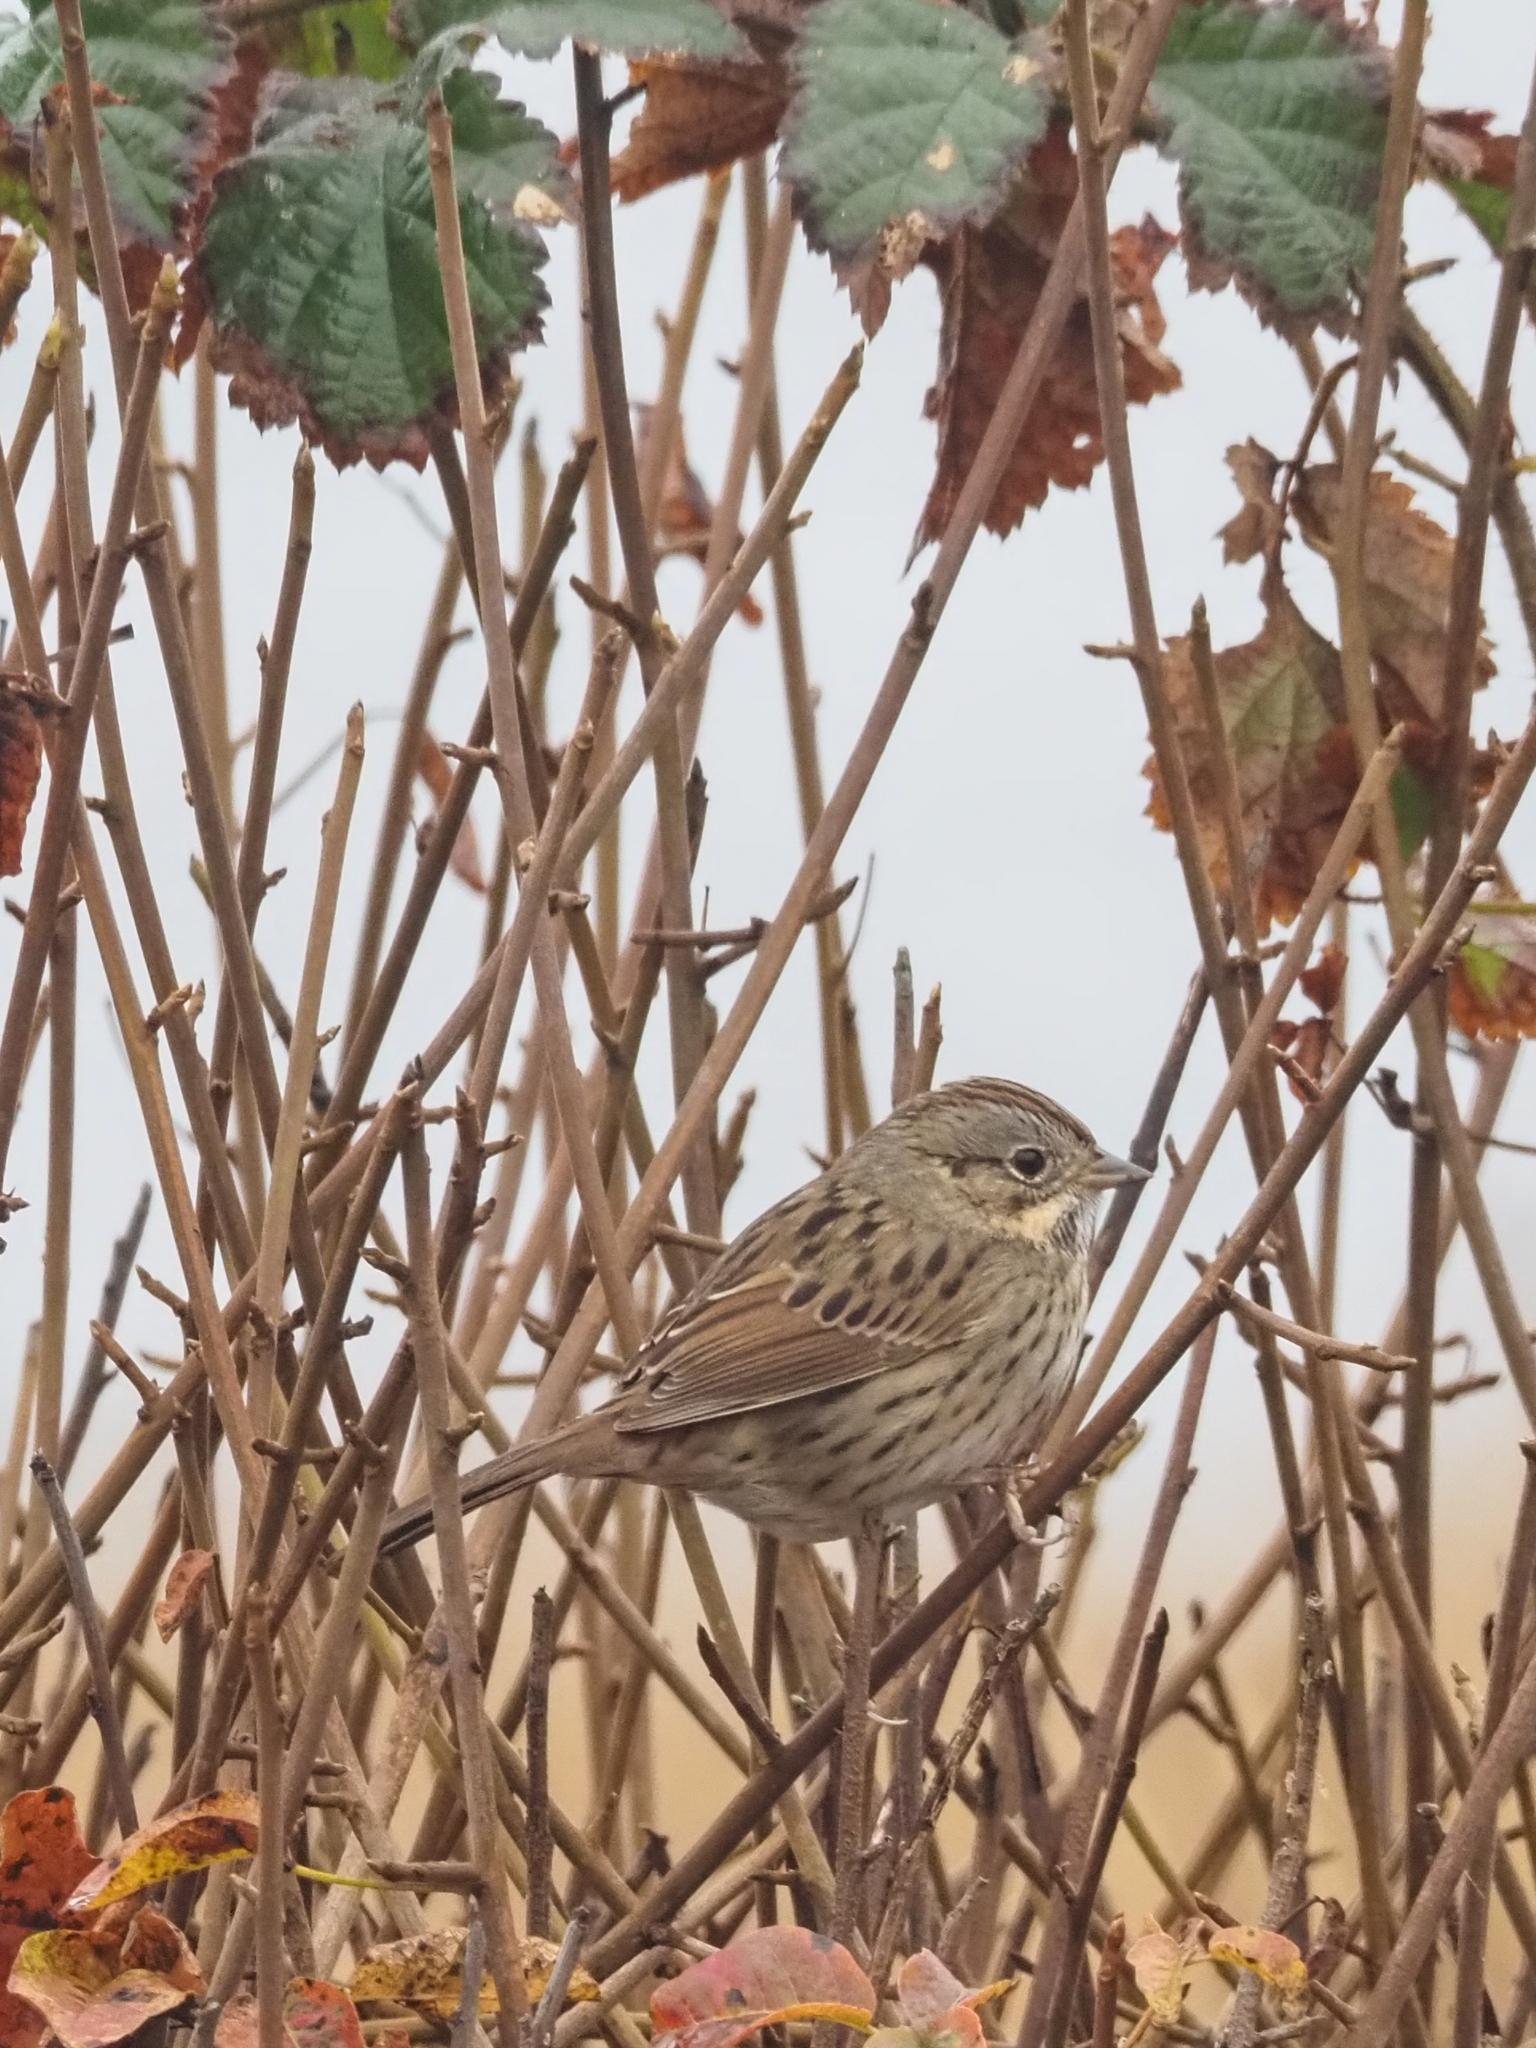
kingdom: Animalia
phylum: Chordata
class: Aves
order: Passeriformes
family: Passerellidae
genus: Melospiza
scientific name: Melospiza lincolnii
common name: Lincoln's sparrow
